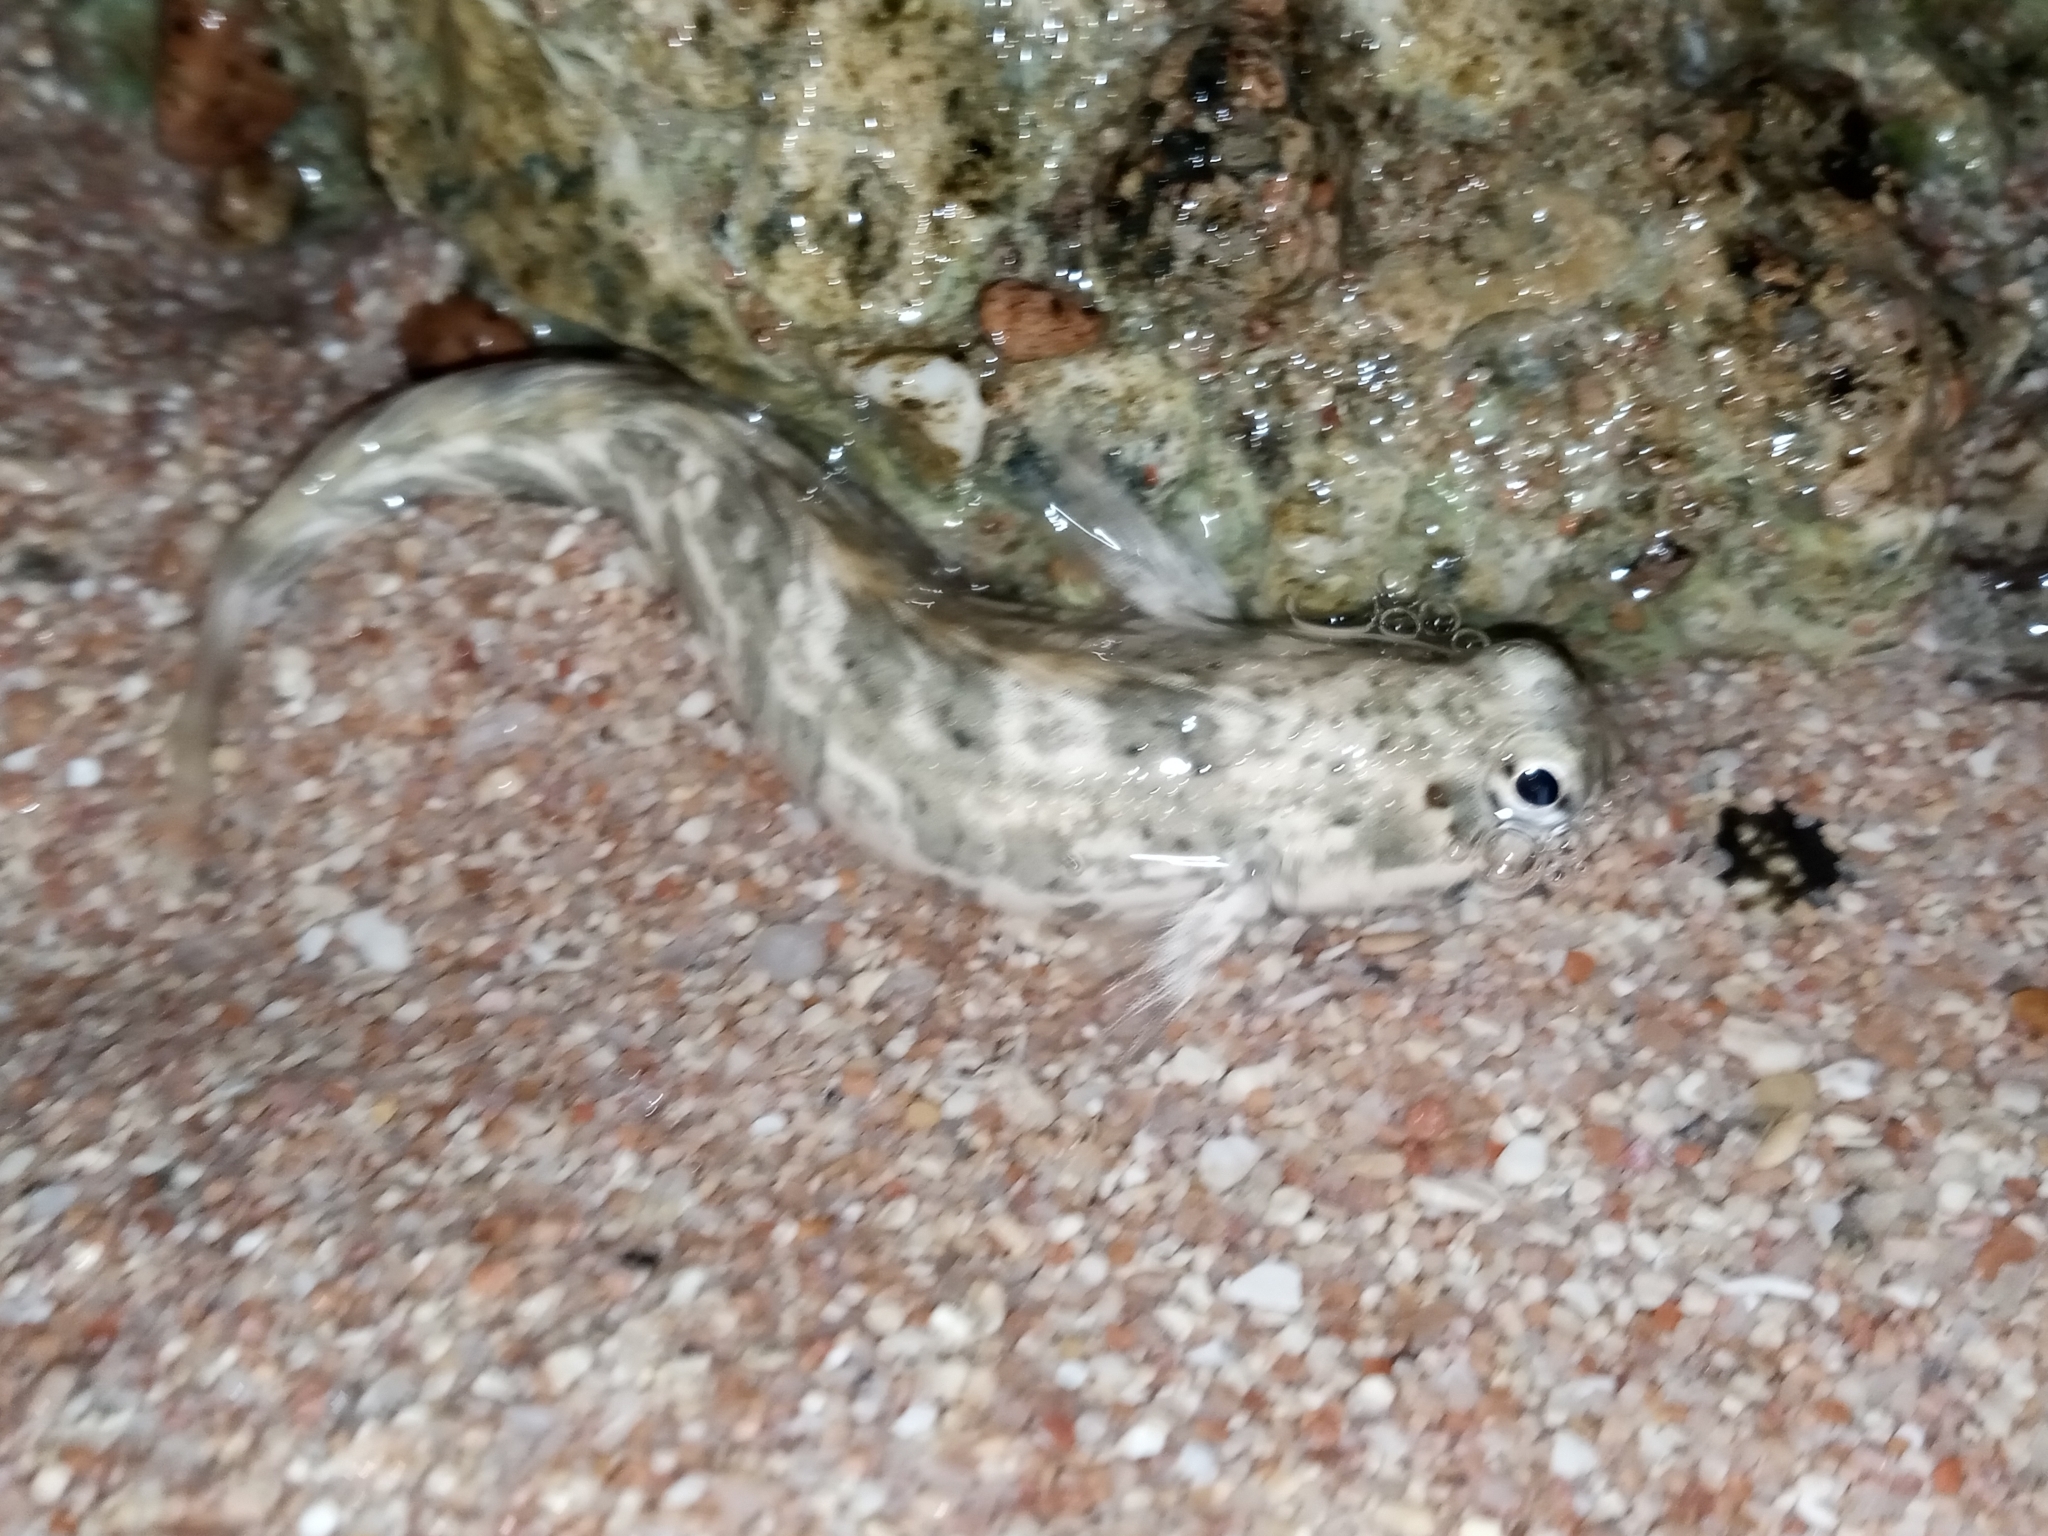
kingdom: Animalia
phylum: Chordata
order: Perciformes
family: Blenniidae
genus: Istiblennius
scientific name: Istiblennius rivulatus
